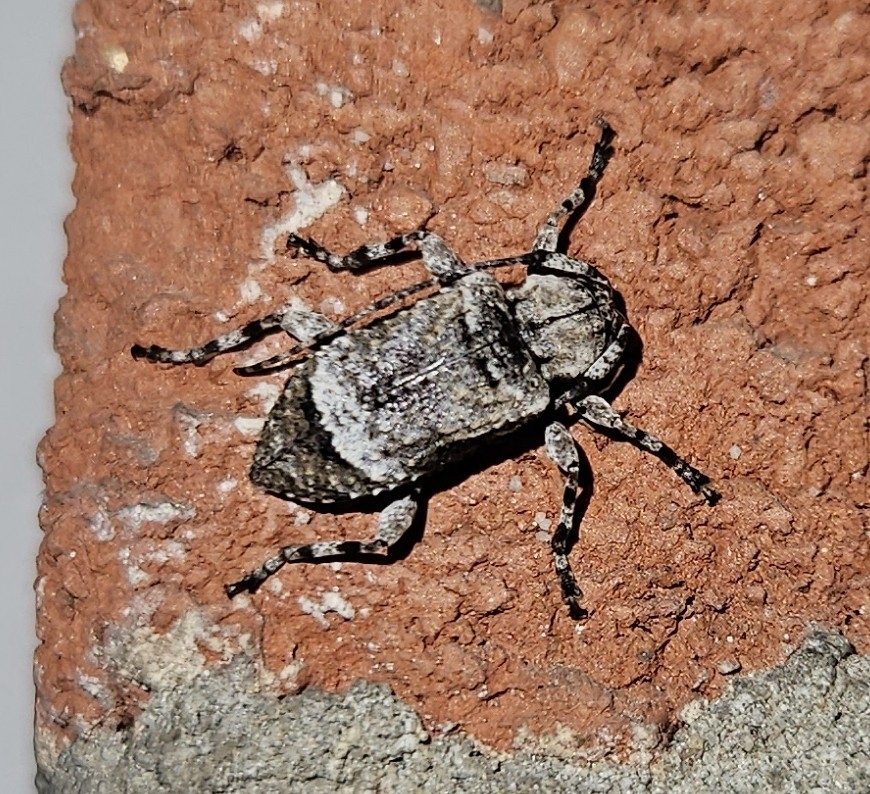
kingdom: Animalia
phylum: Arthropoda
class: Insecta
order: Coleoptera
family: Cerambycidae
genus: Leptostylus
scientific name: Leptostylus transversus
